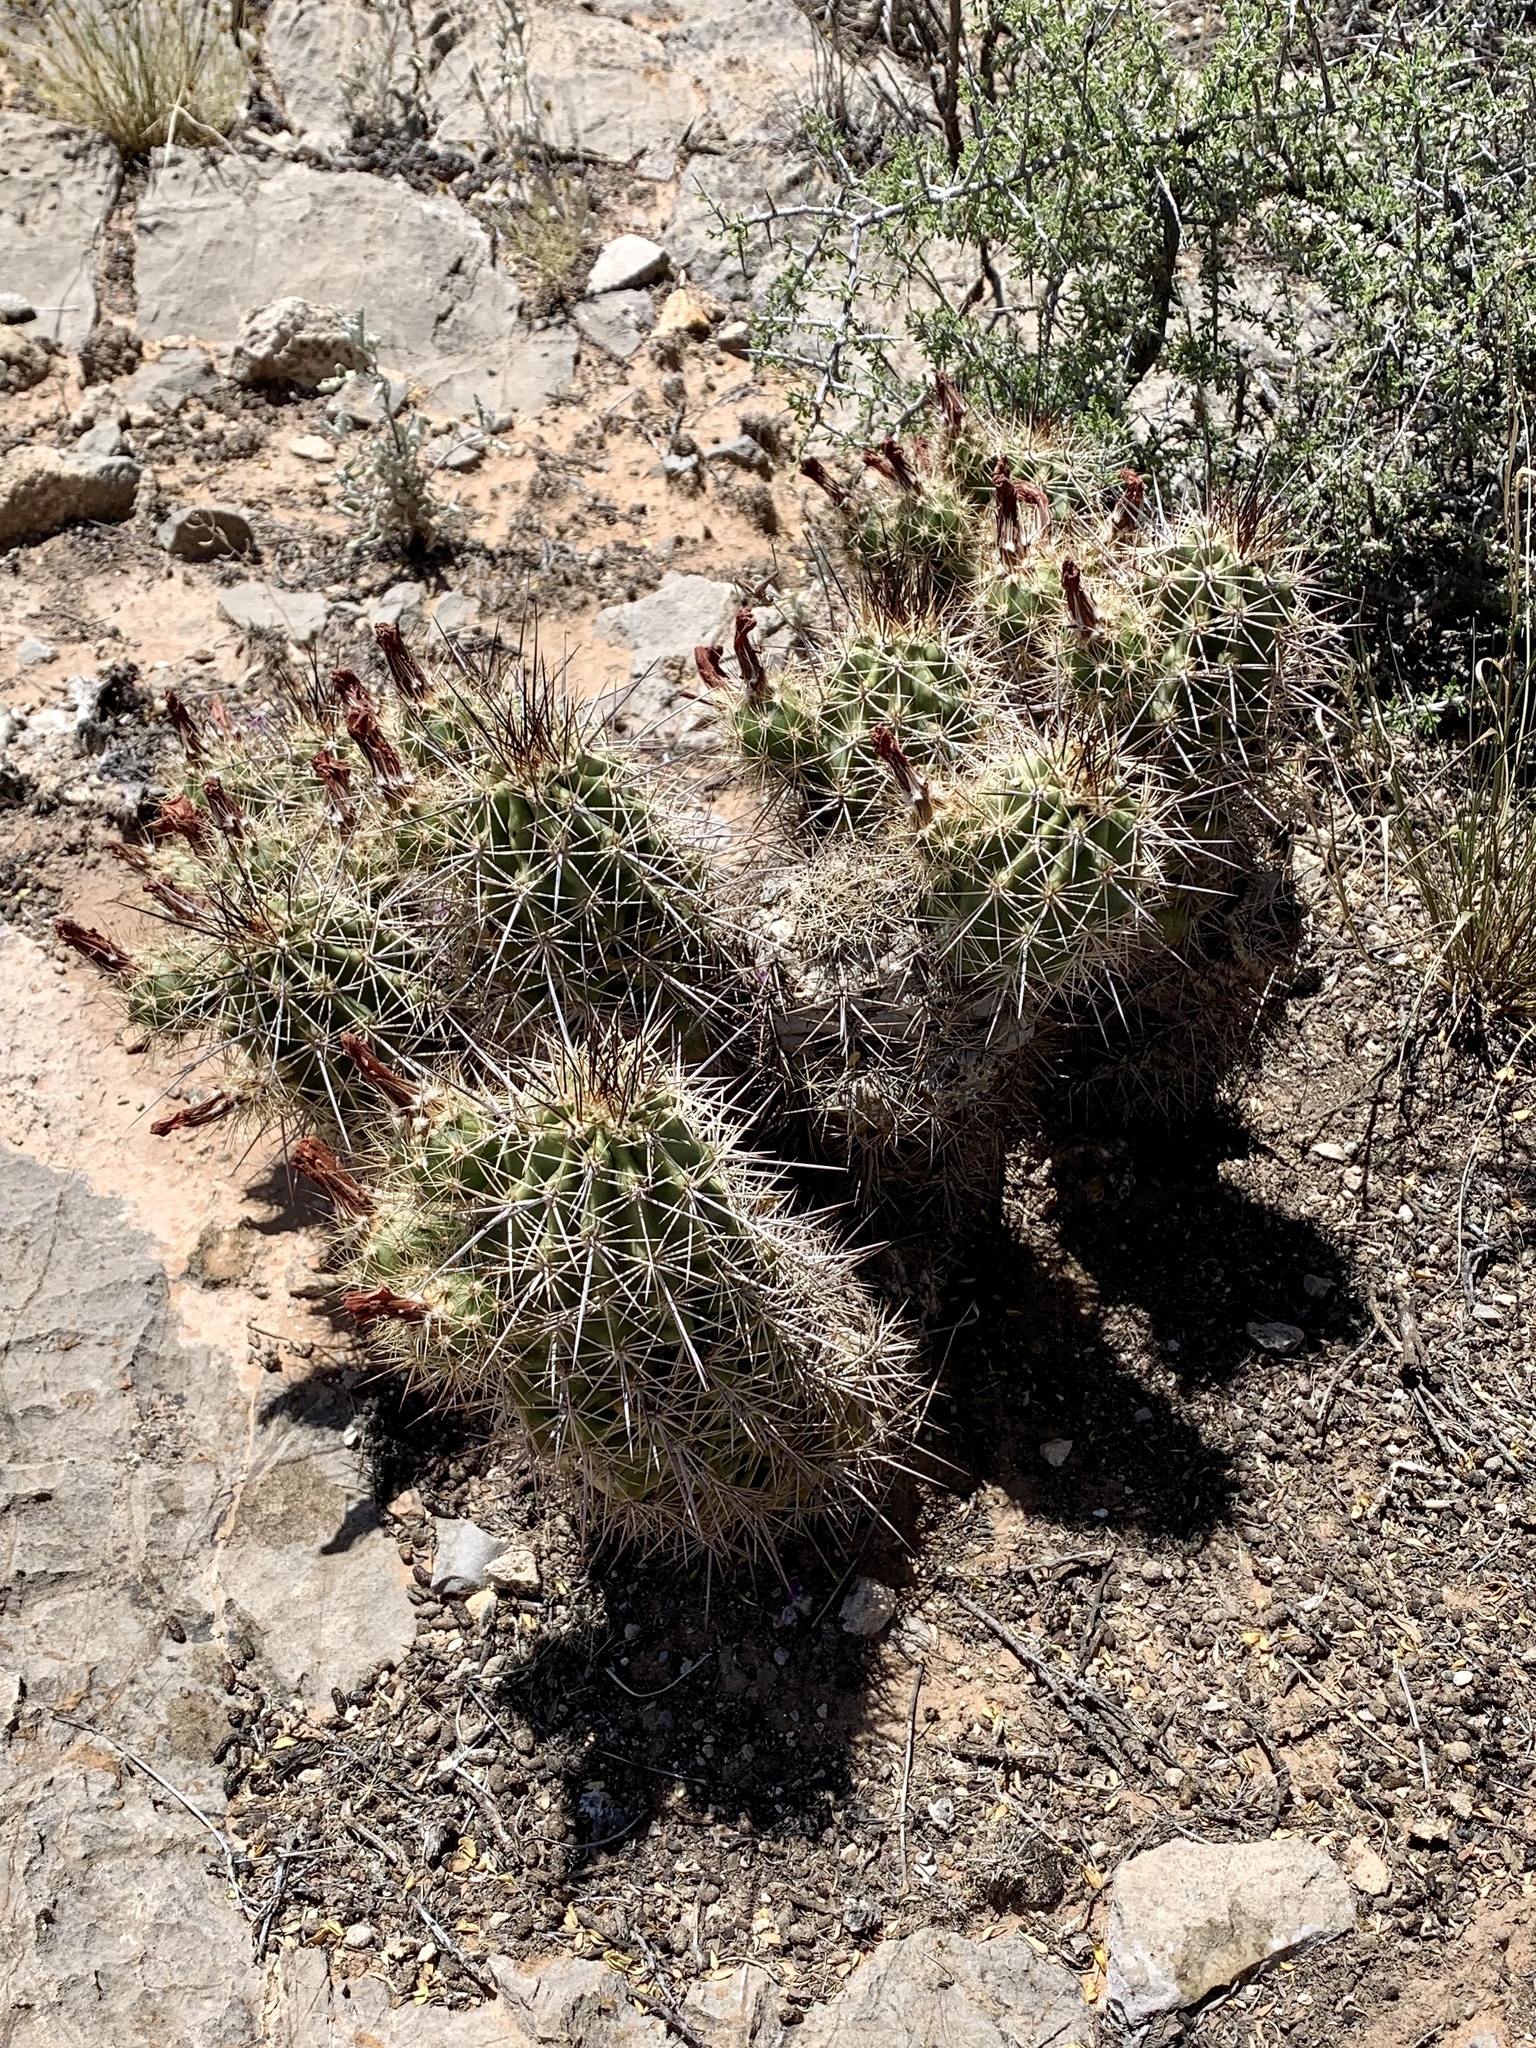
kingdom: Plantae
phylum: Tracheophyta
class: Magnoliopsida
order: Caryophyllales
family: Cactaceae
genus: Echinocereus
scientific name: Echinocereus coccineus
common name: Scarlet hedgehog cactus
